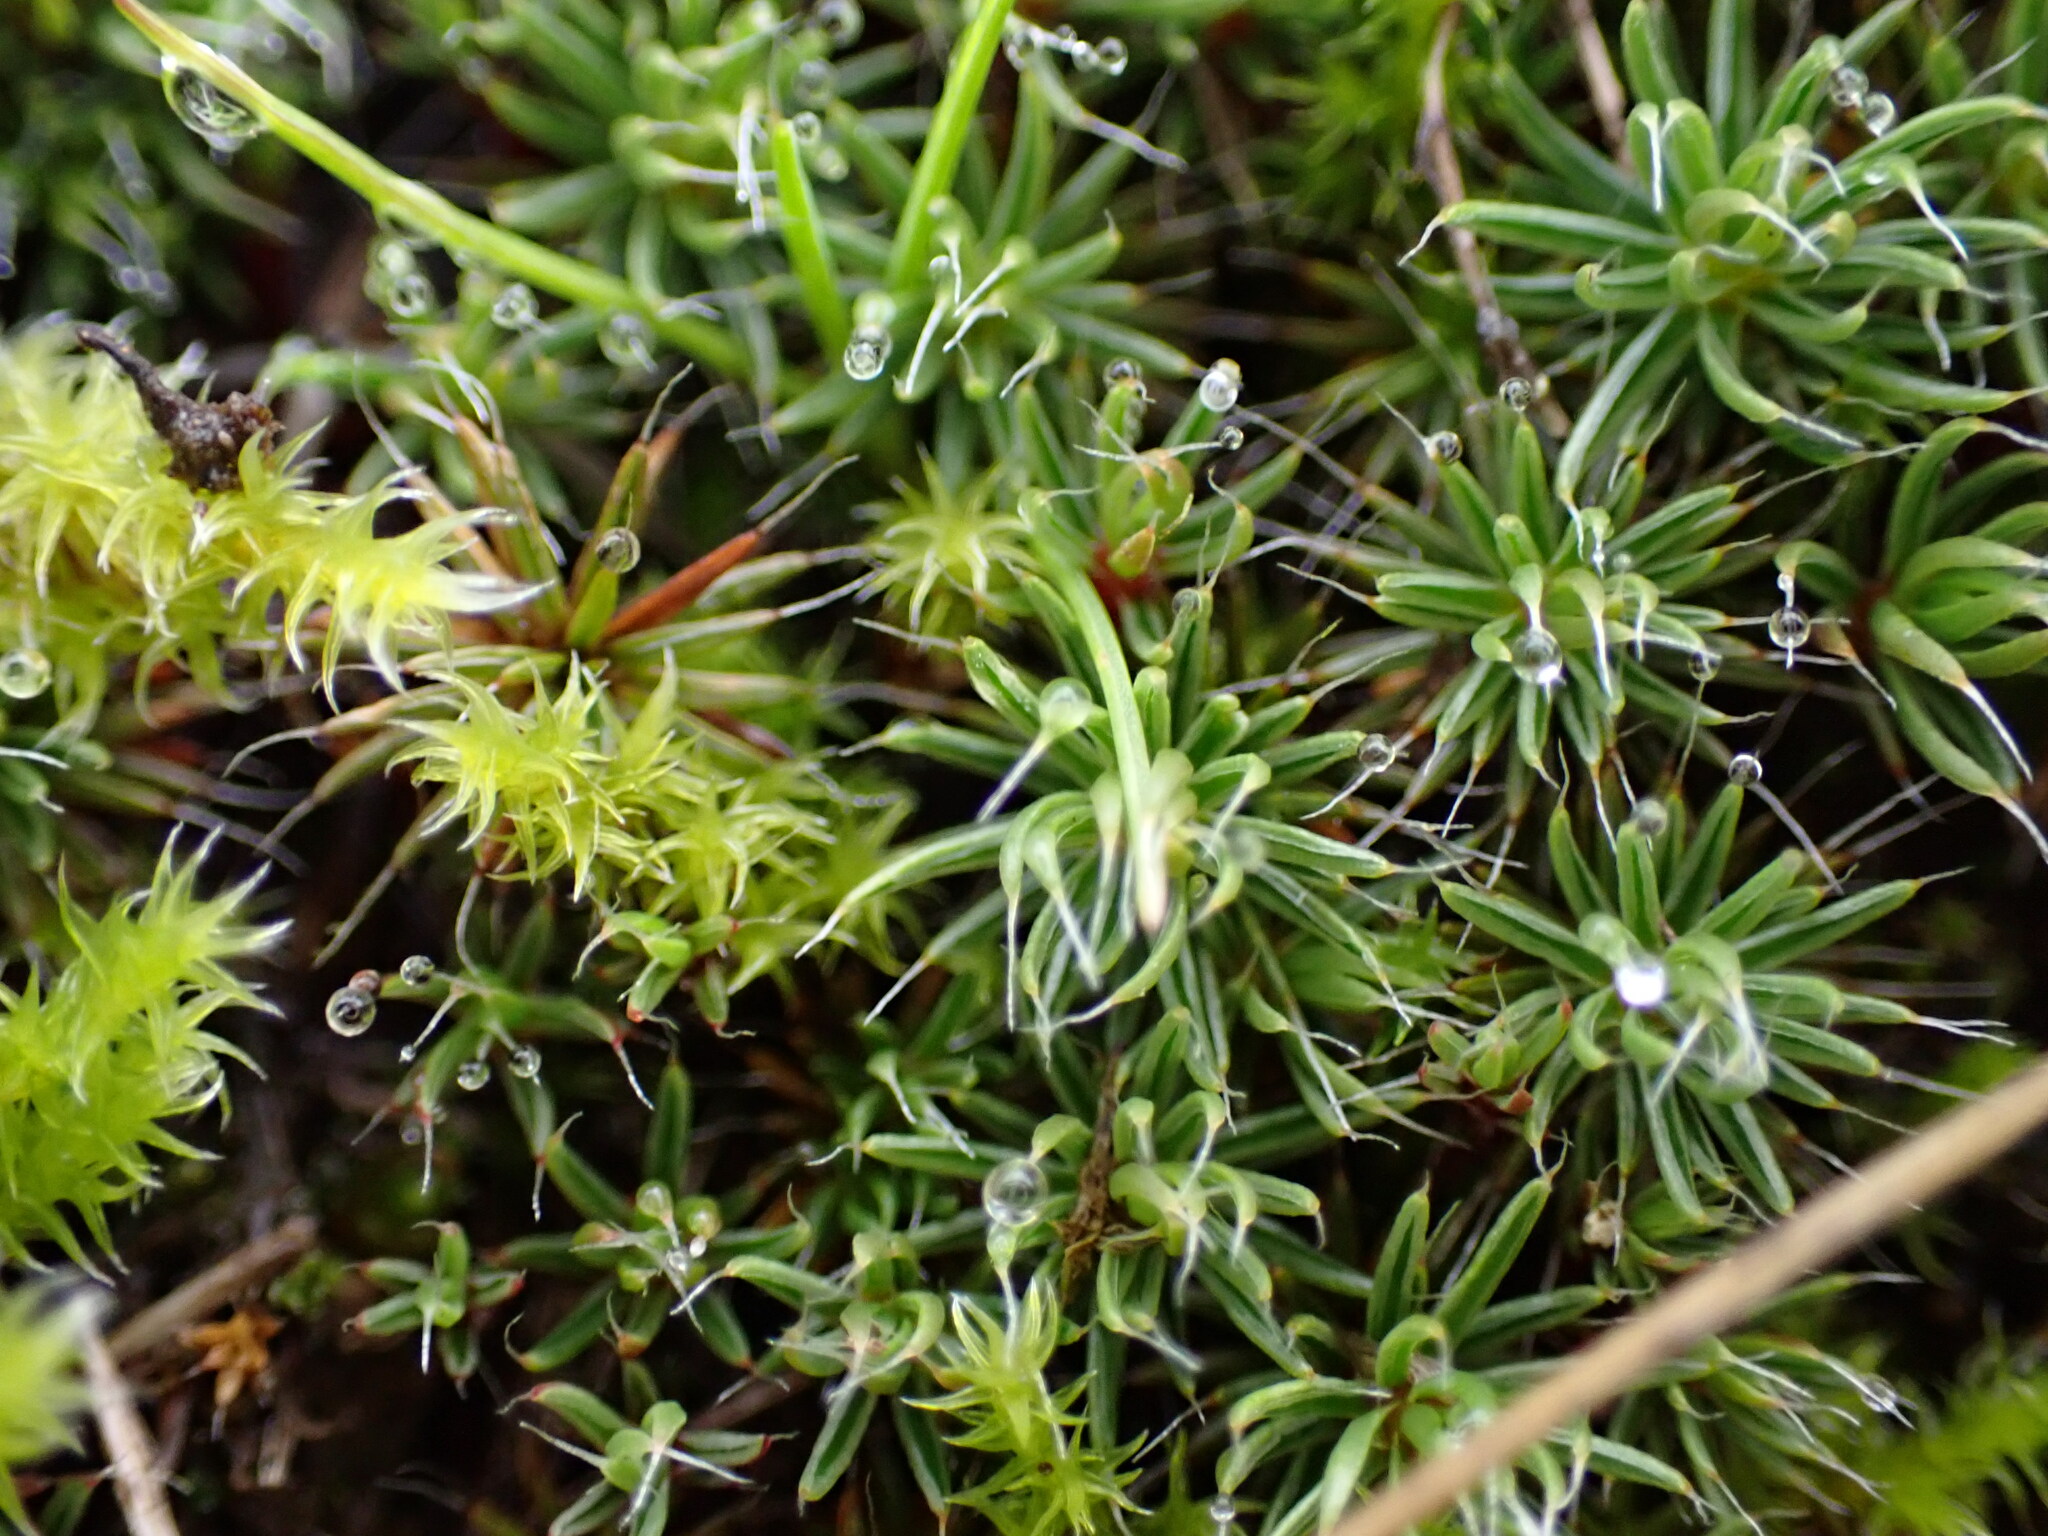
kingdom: Plantae
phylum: Bryophyta
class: Polytrichopsida
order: Polytrichales
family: Polytrichaceae
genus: Polytrichum
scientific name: Polytrichum piliferum
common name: Bristly haircap
